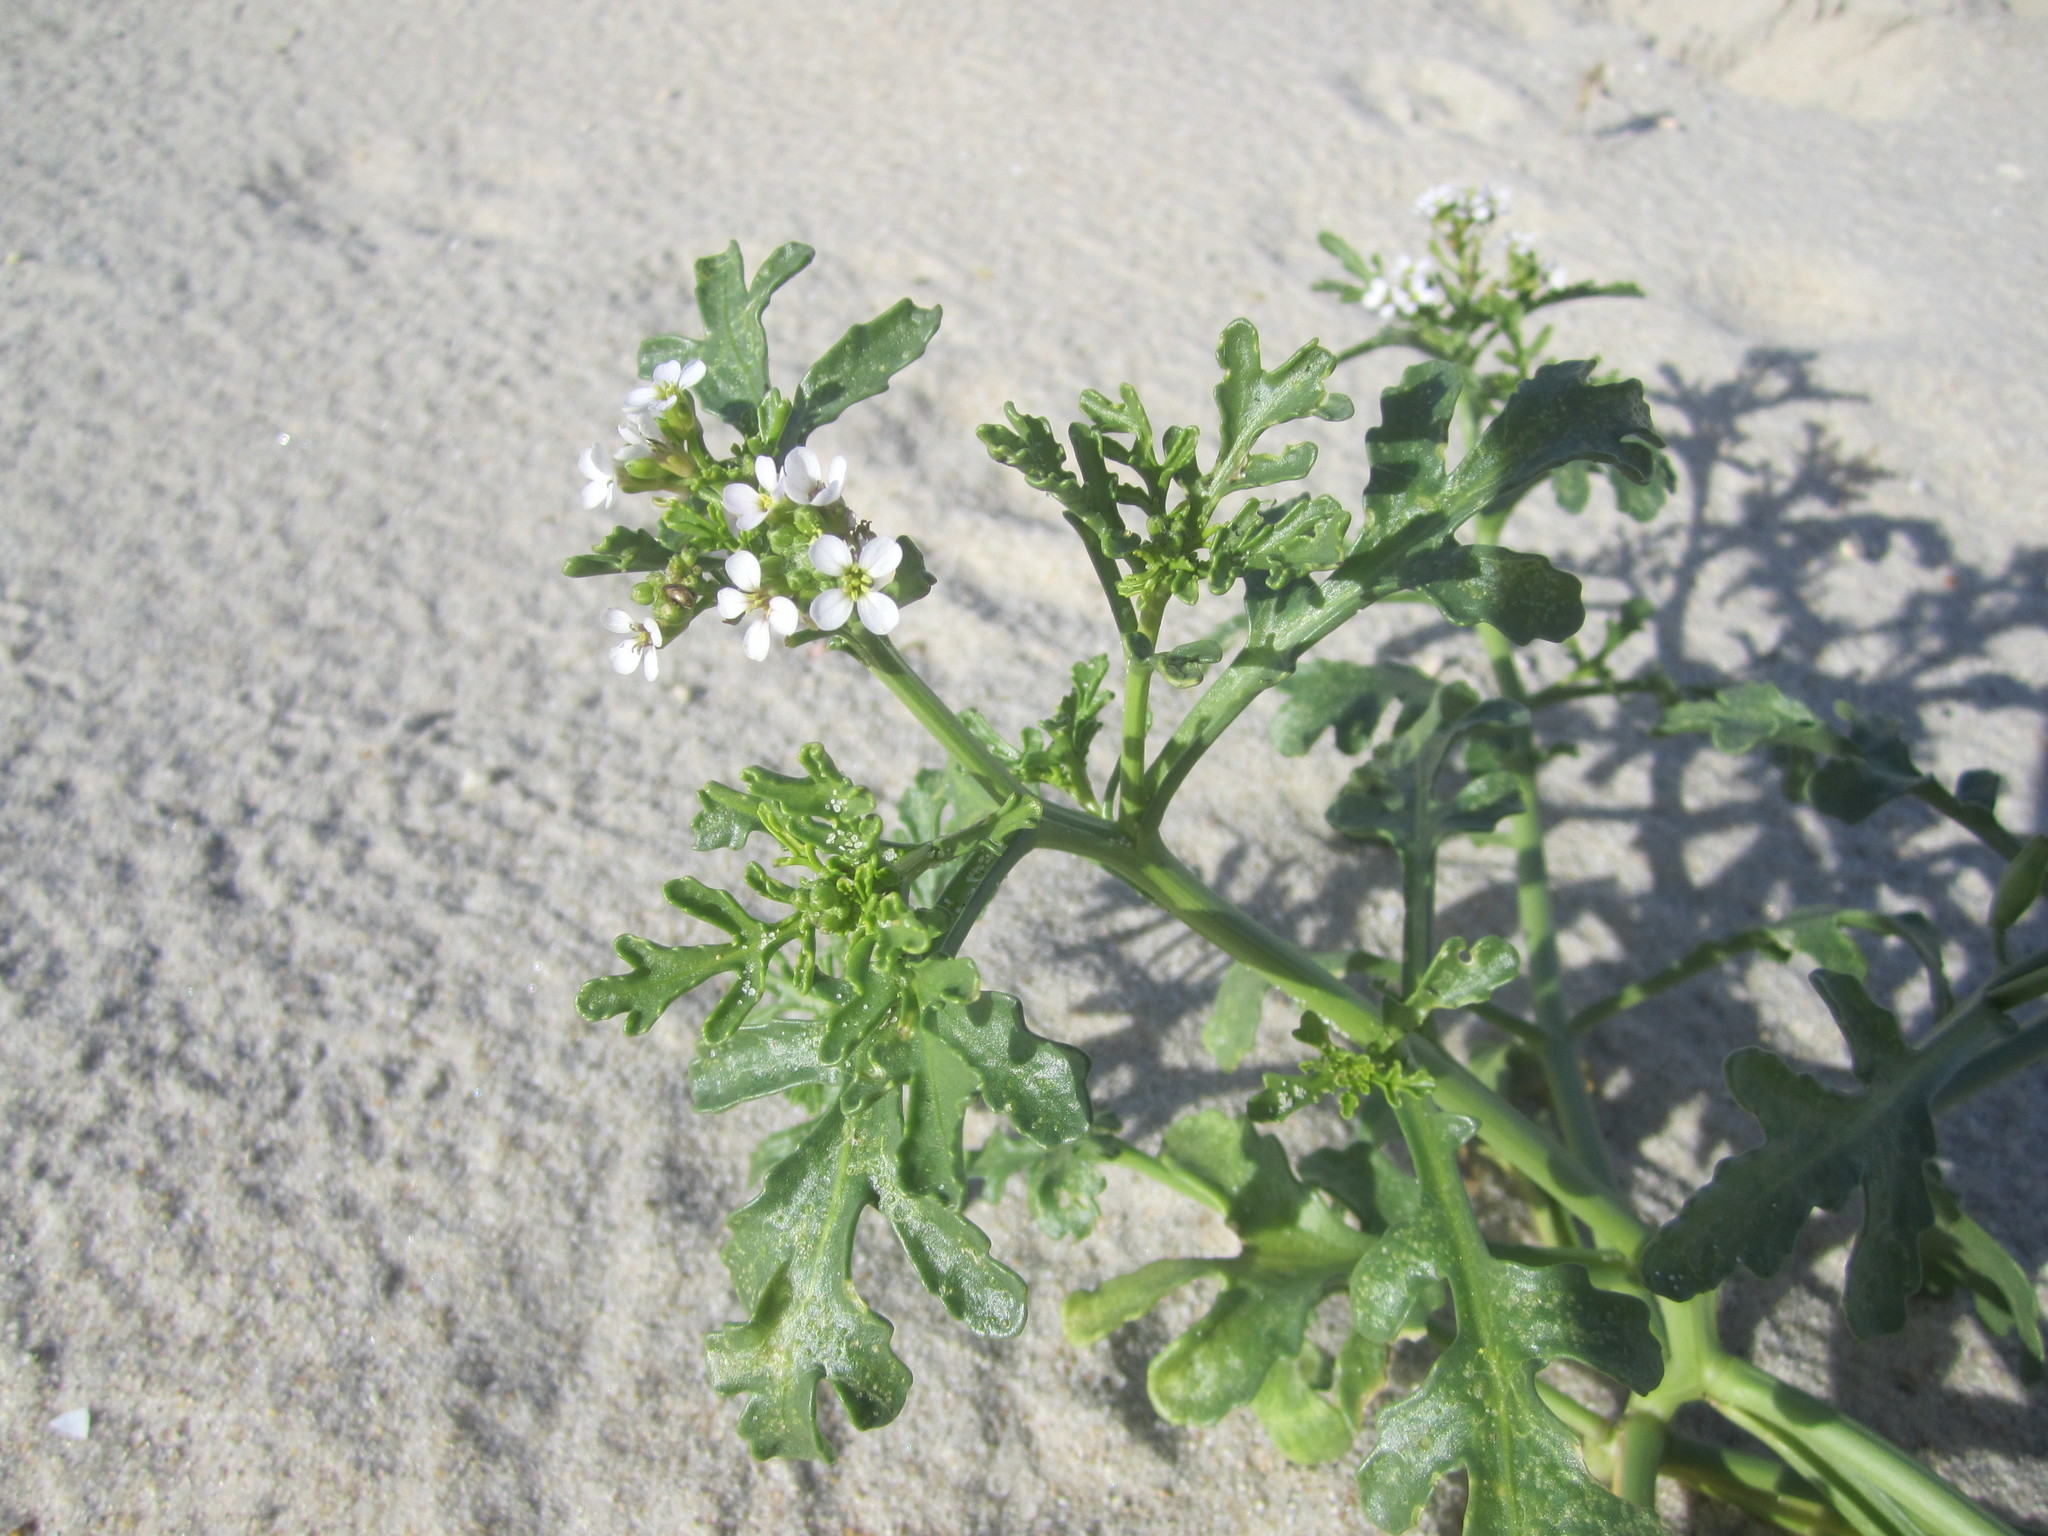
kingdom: Plantae
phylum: Tracheophyta
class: Magnoliopsida
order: Brassicales
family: Brassicaceae
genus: Cakile
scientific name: Cakile maritima
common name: Sea rocket
